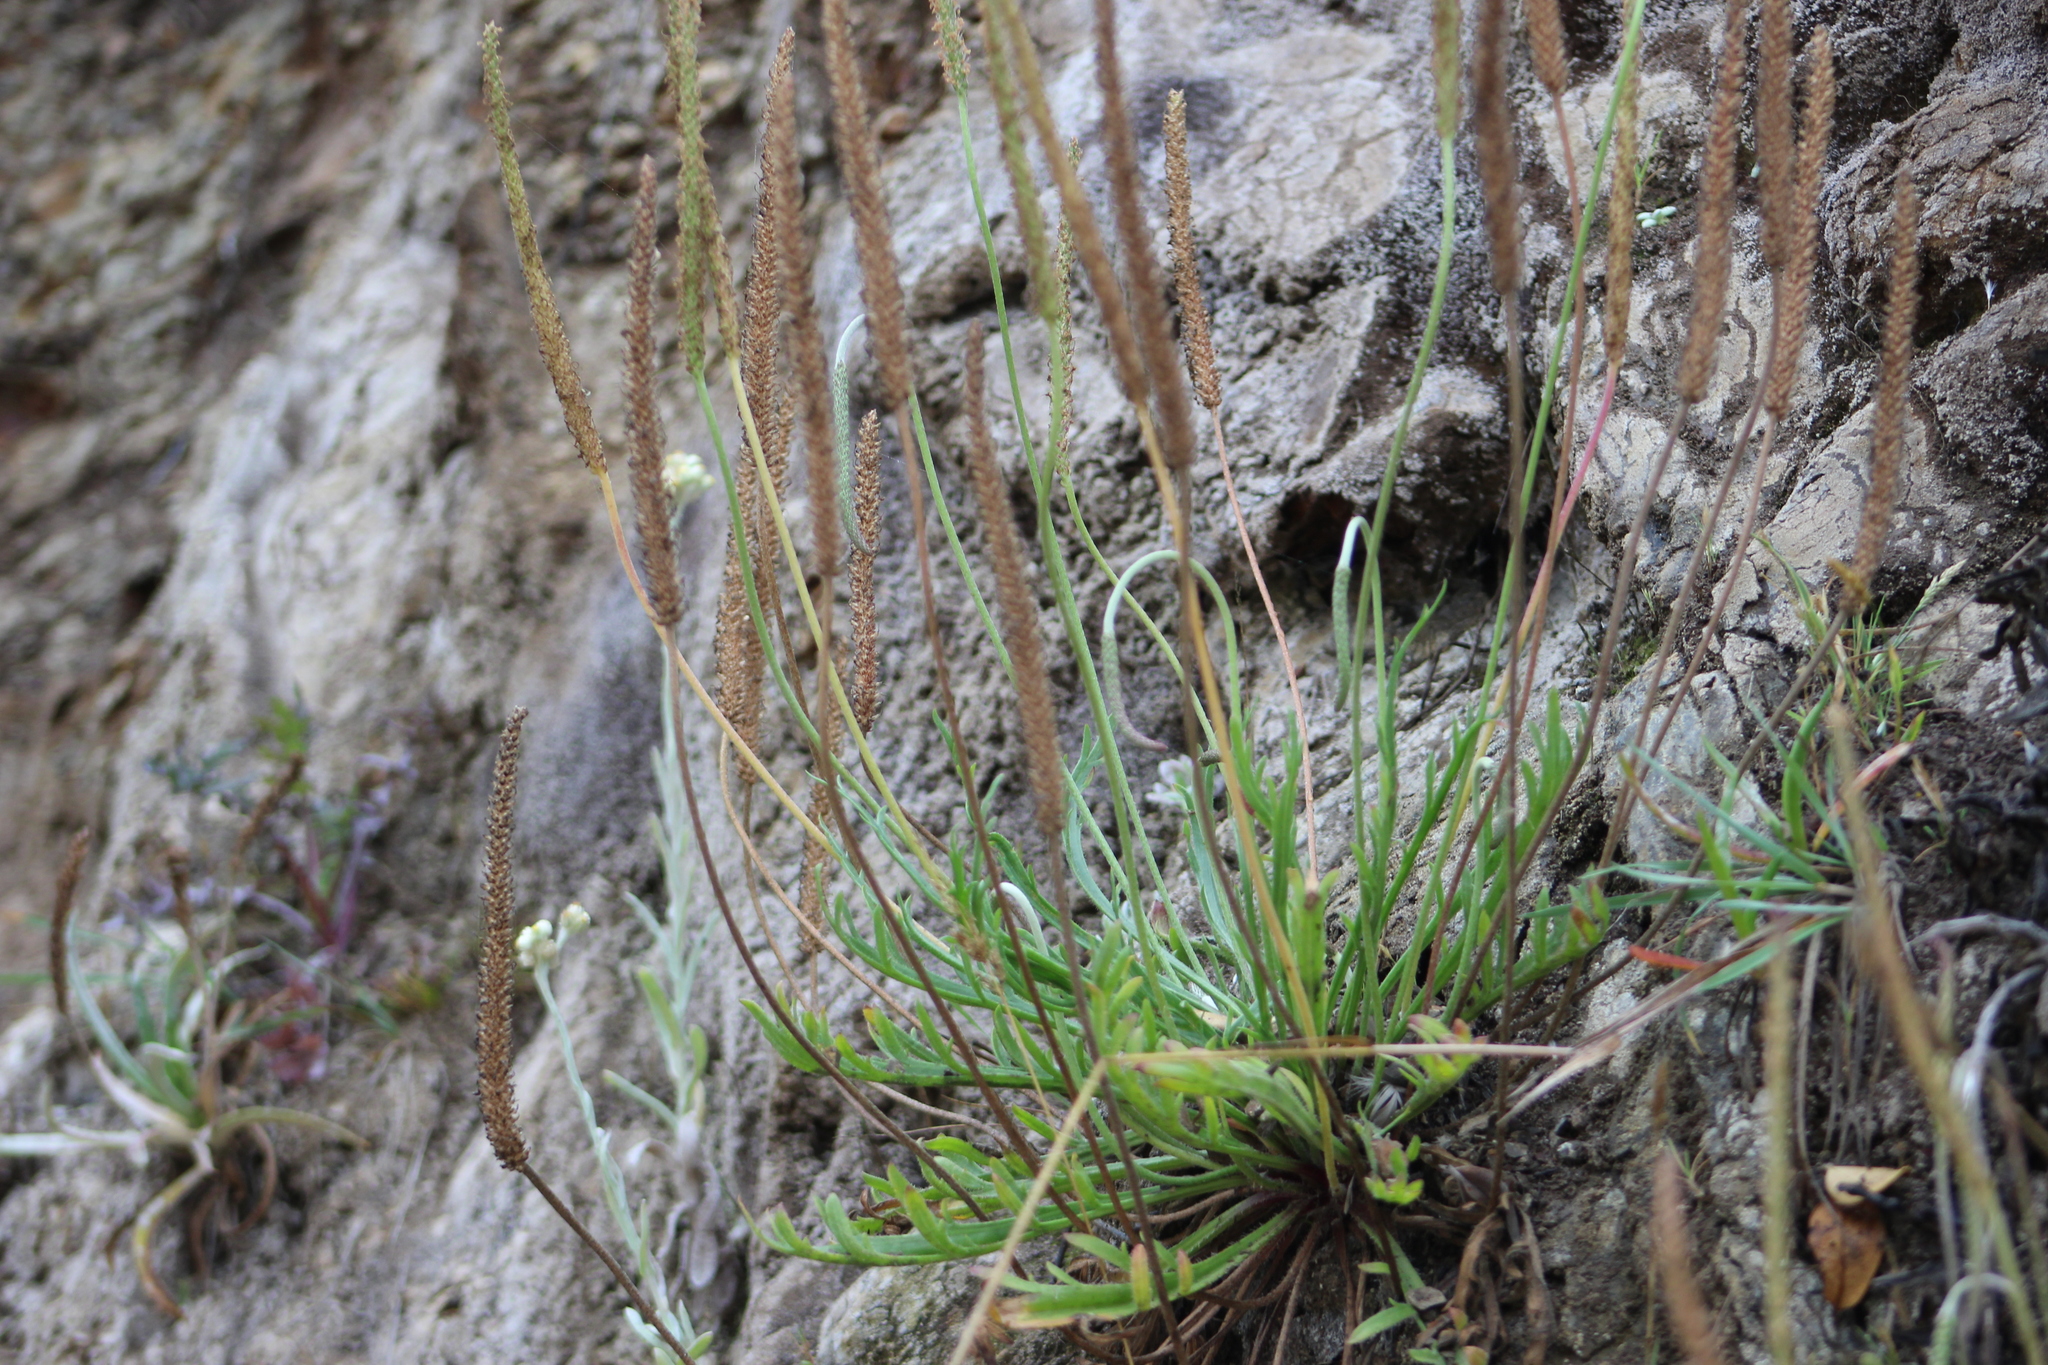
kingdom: Plantae
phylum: Tracheophyta
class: Magnoliopsida
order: Lamiales
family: Plantaginaceae
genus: Plantago
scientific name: Plantago coronopus
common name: Buck's-horn plantain
